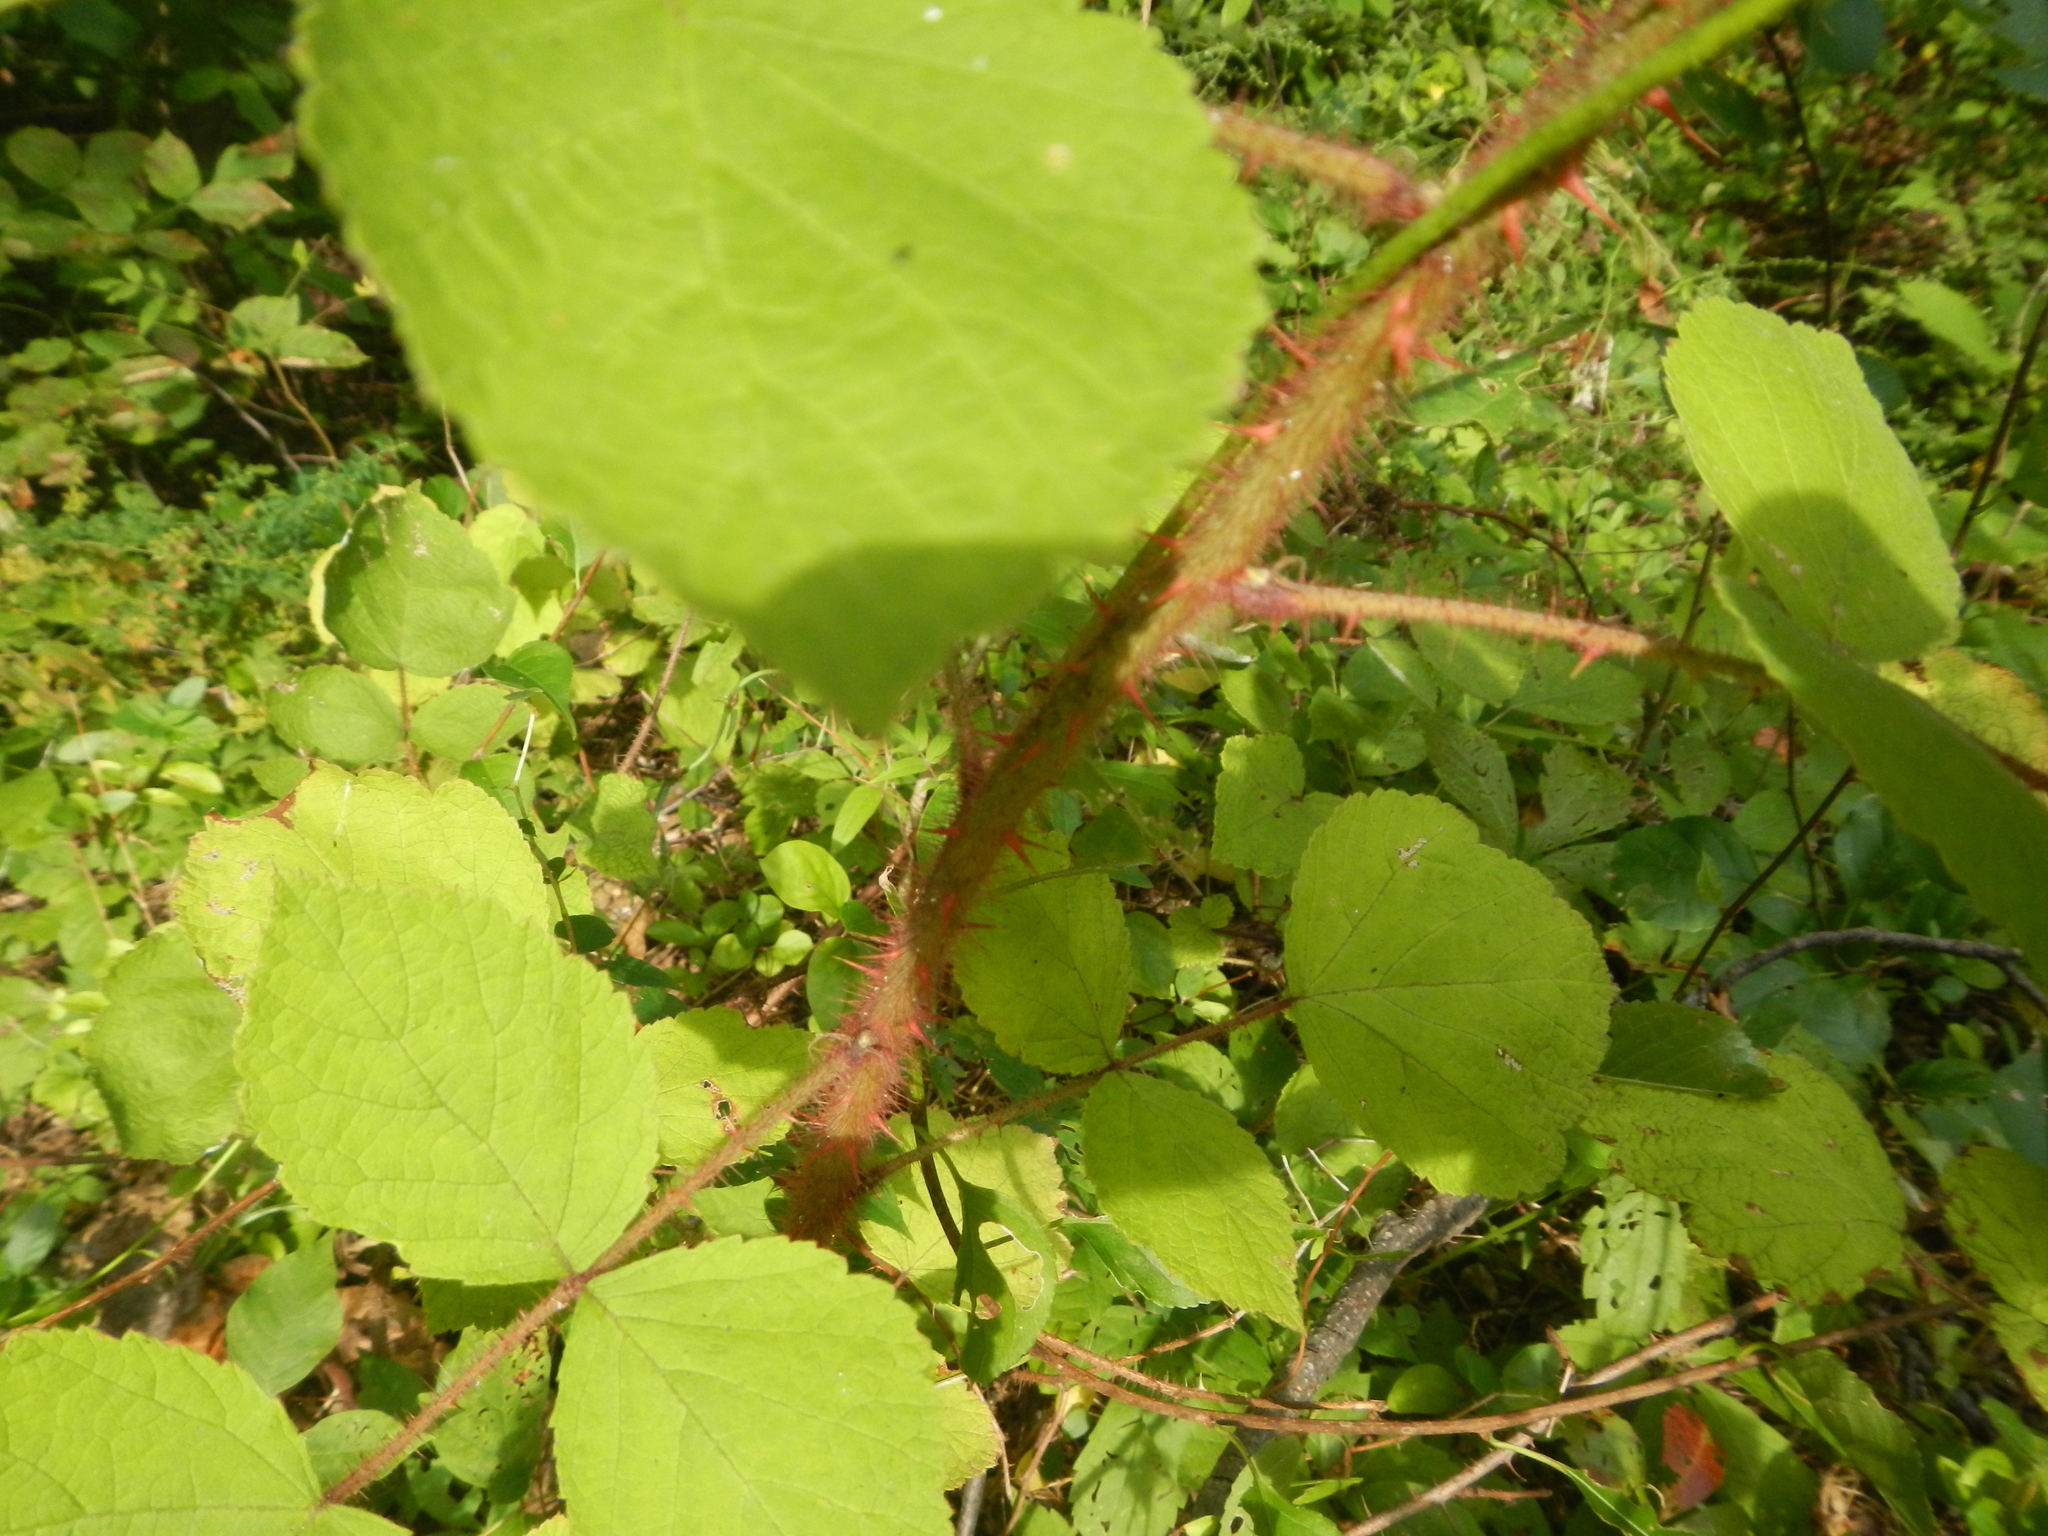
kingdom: Plantae
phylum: Tracheophyta
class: Magnoliopsida
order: Rosales
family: Rosaceae
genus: Rubus
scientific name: Rubus phoenicolasius
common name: Japanese wineberry
